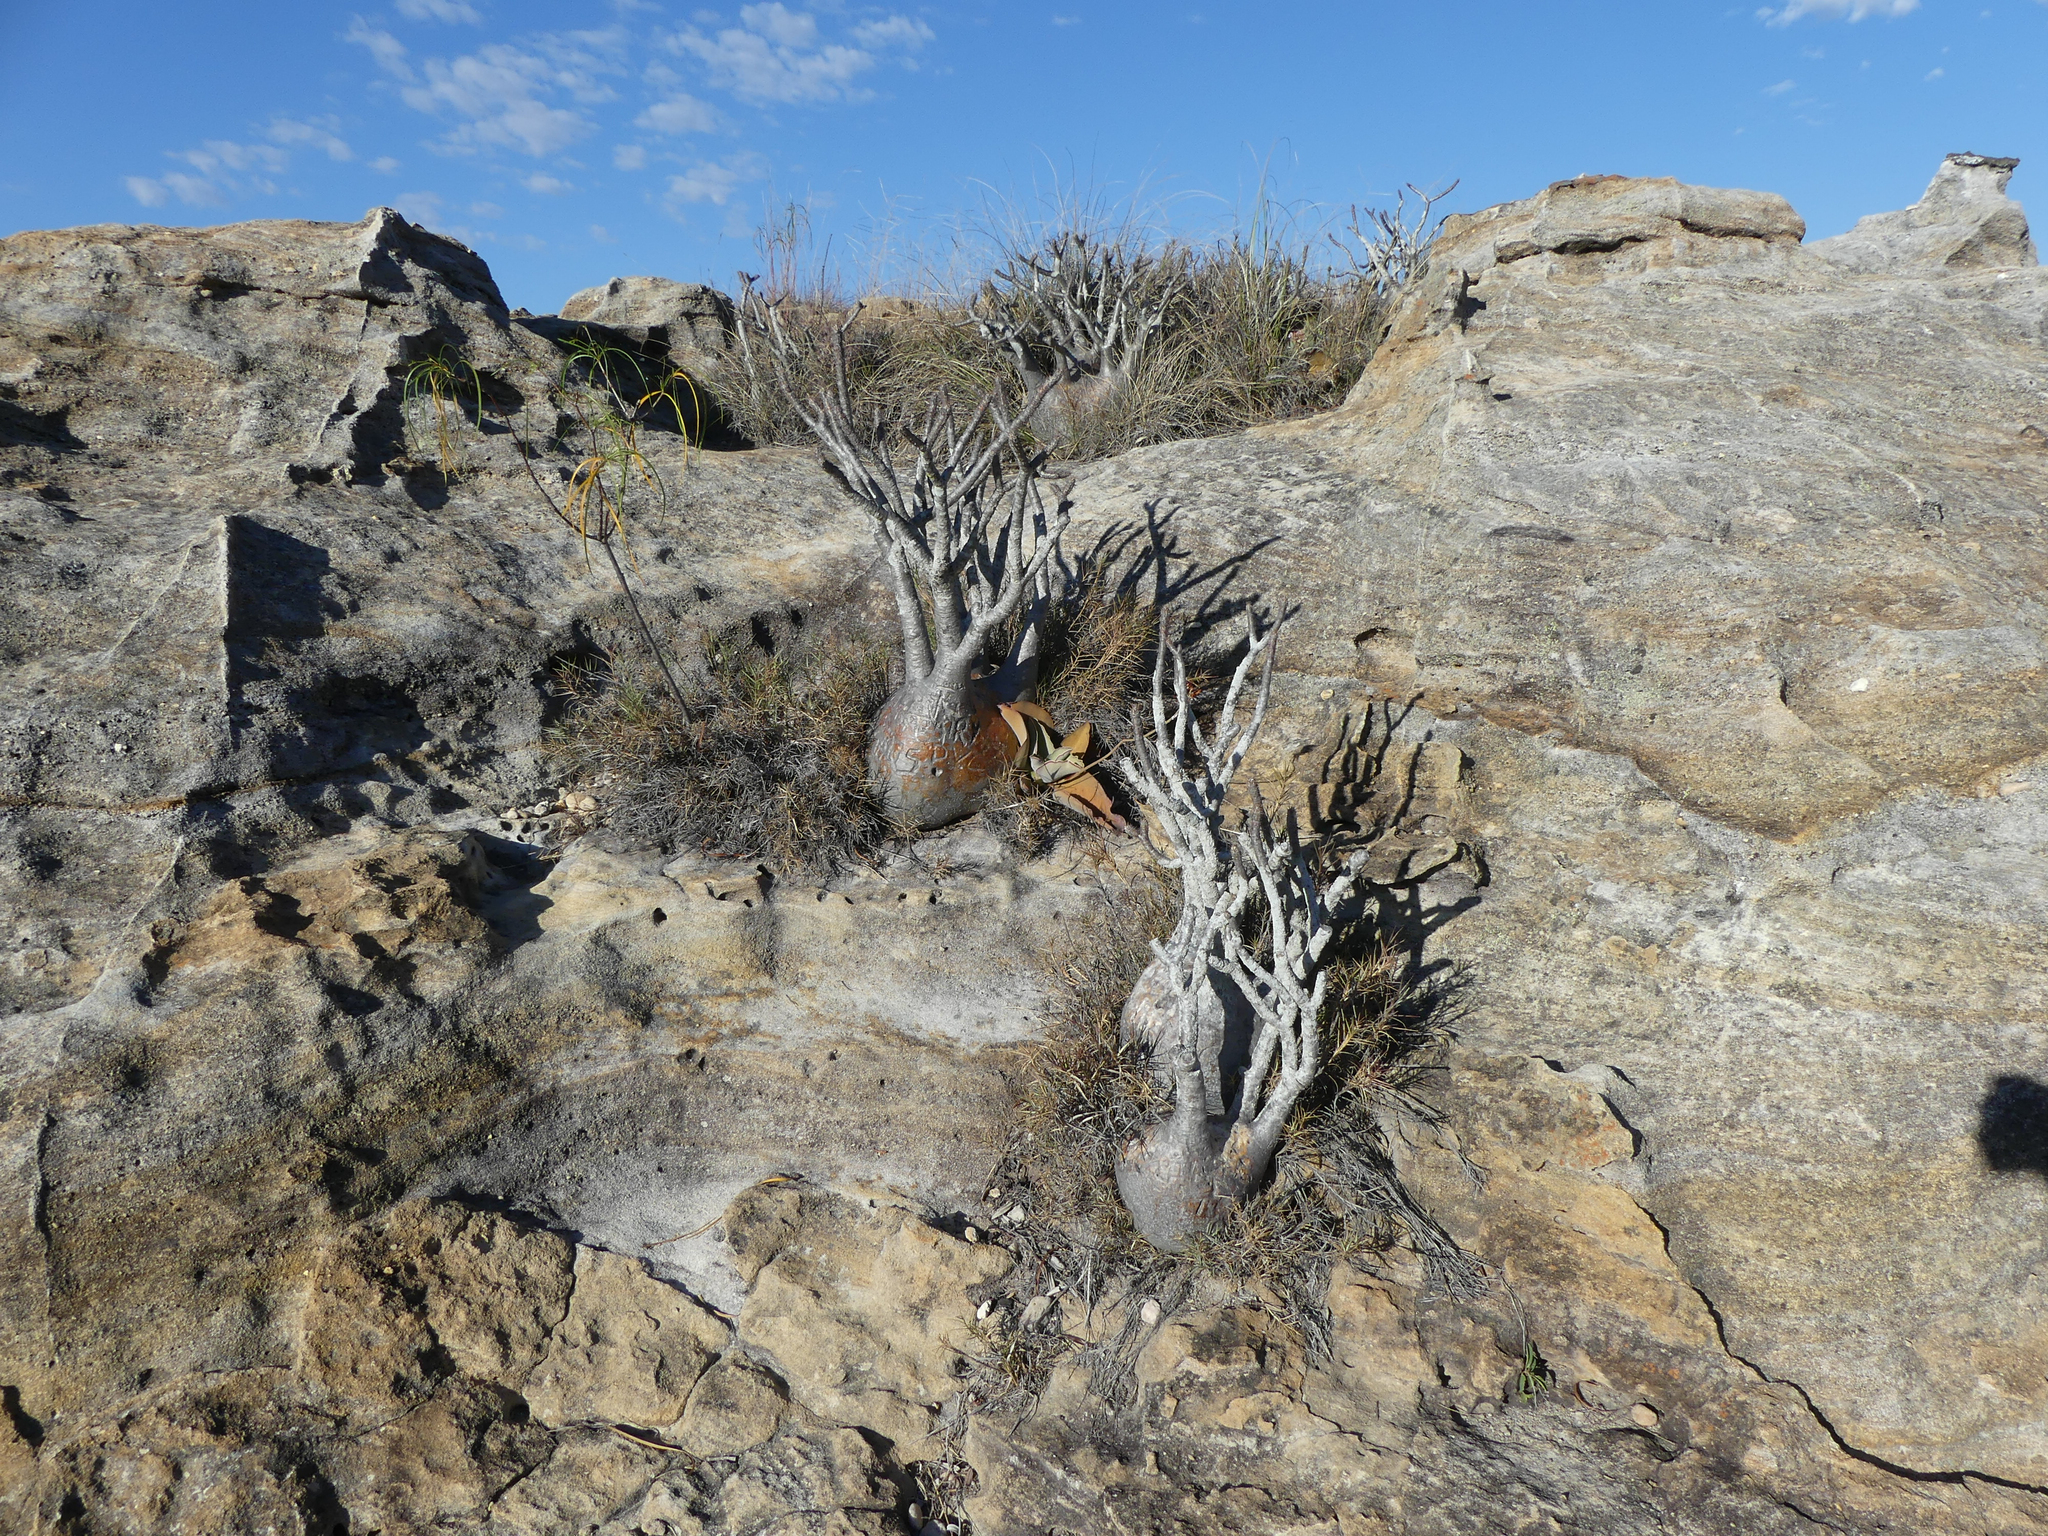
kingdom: Plantae
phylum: Tracheophyta
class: Magnoliopsida
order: Gentianales
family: Apocynaceae
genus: Pachypodium
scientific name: Pachypodium rosulatum
